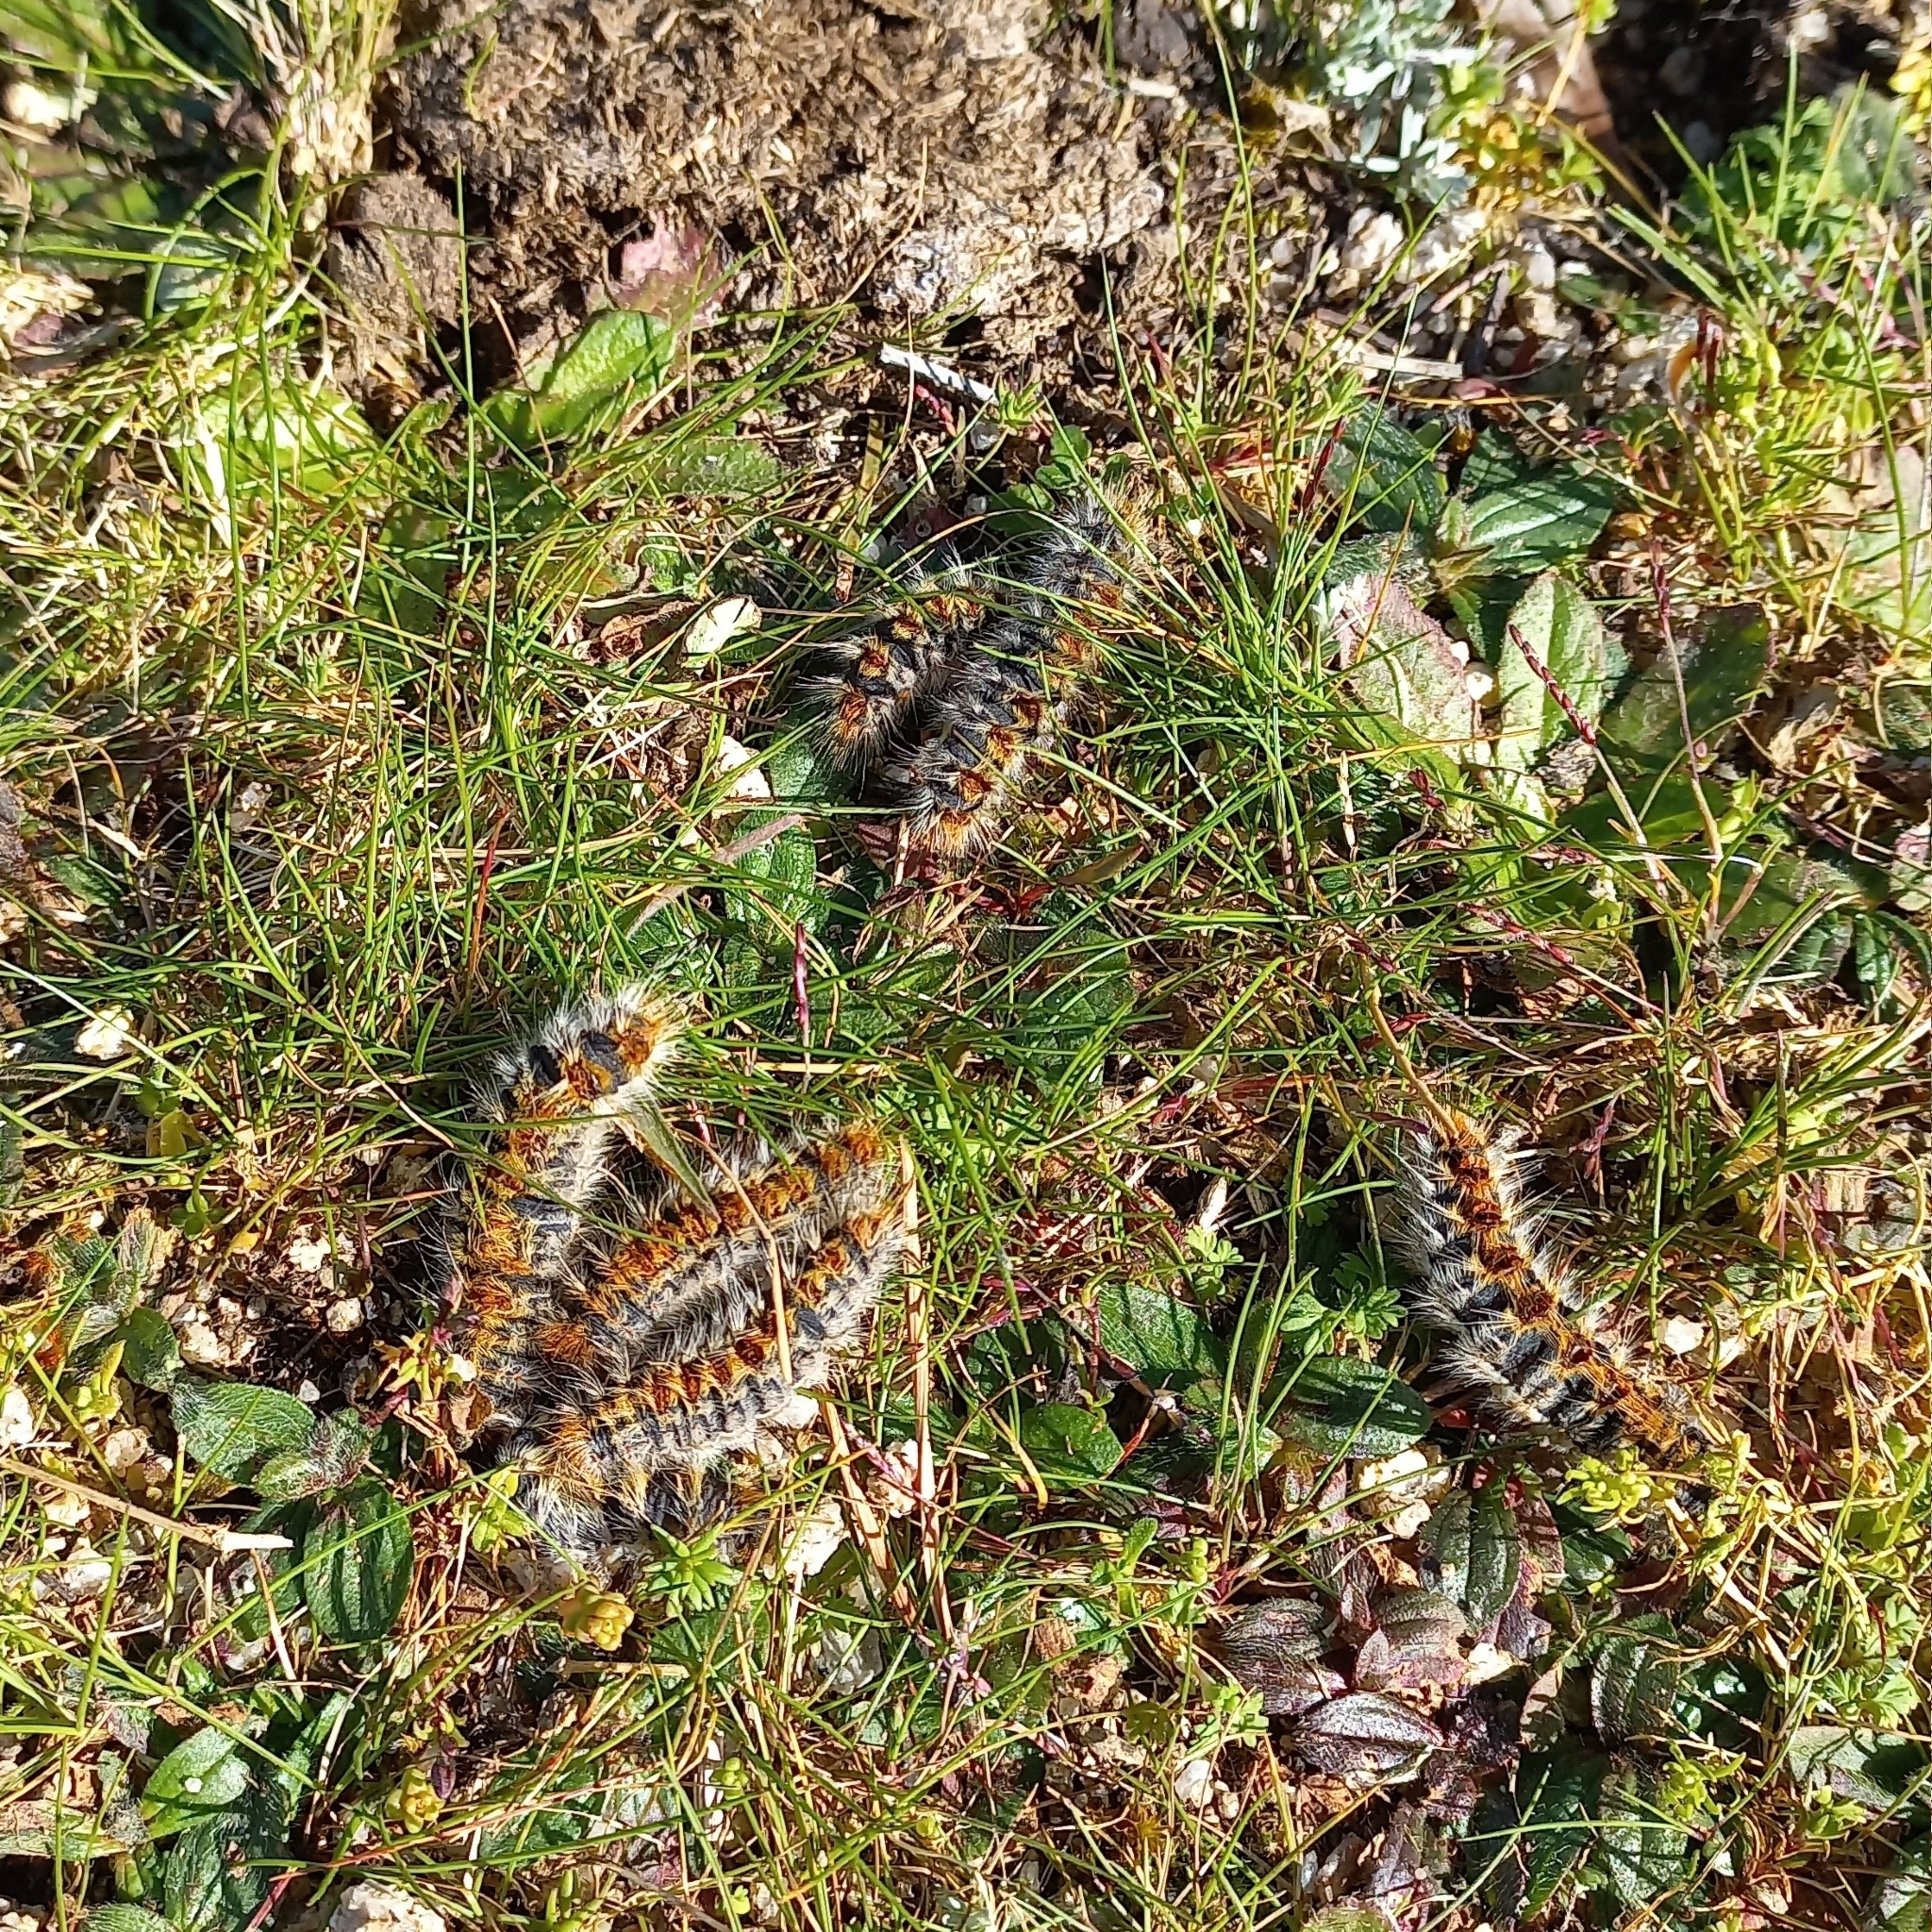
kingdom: Animalia
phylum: Arthropoda
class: Insecta
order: Lepidoptera
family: Notodontidae
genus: Thaumetopoea
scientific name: Thaumetopoea pityocampa
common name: Pine processionary
